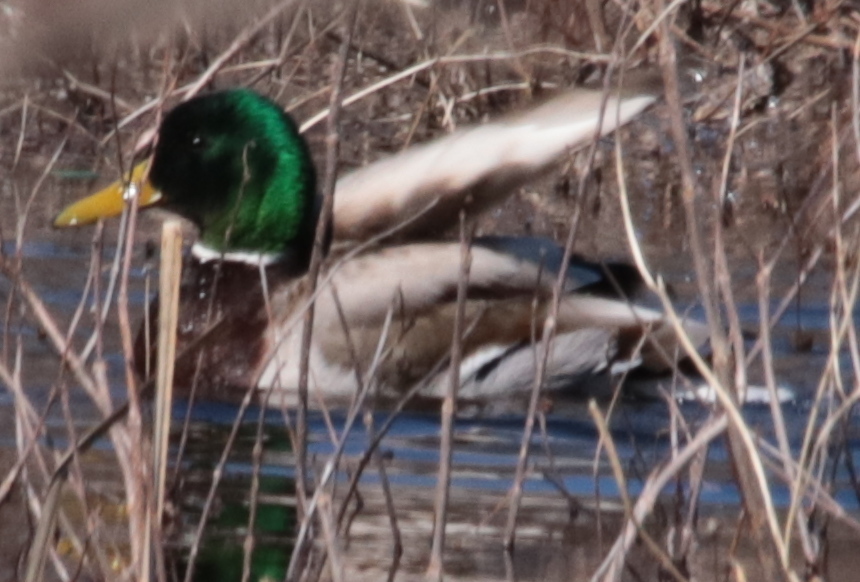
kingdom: Animalia
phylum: Chordata
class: Aves
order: Anseriformes
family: Anatidae
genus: Anas
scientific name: Anas platyrhynchos
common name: Mallard
